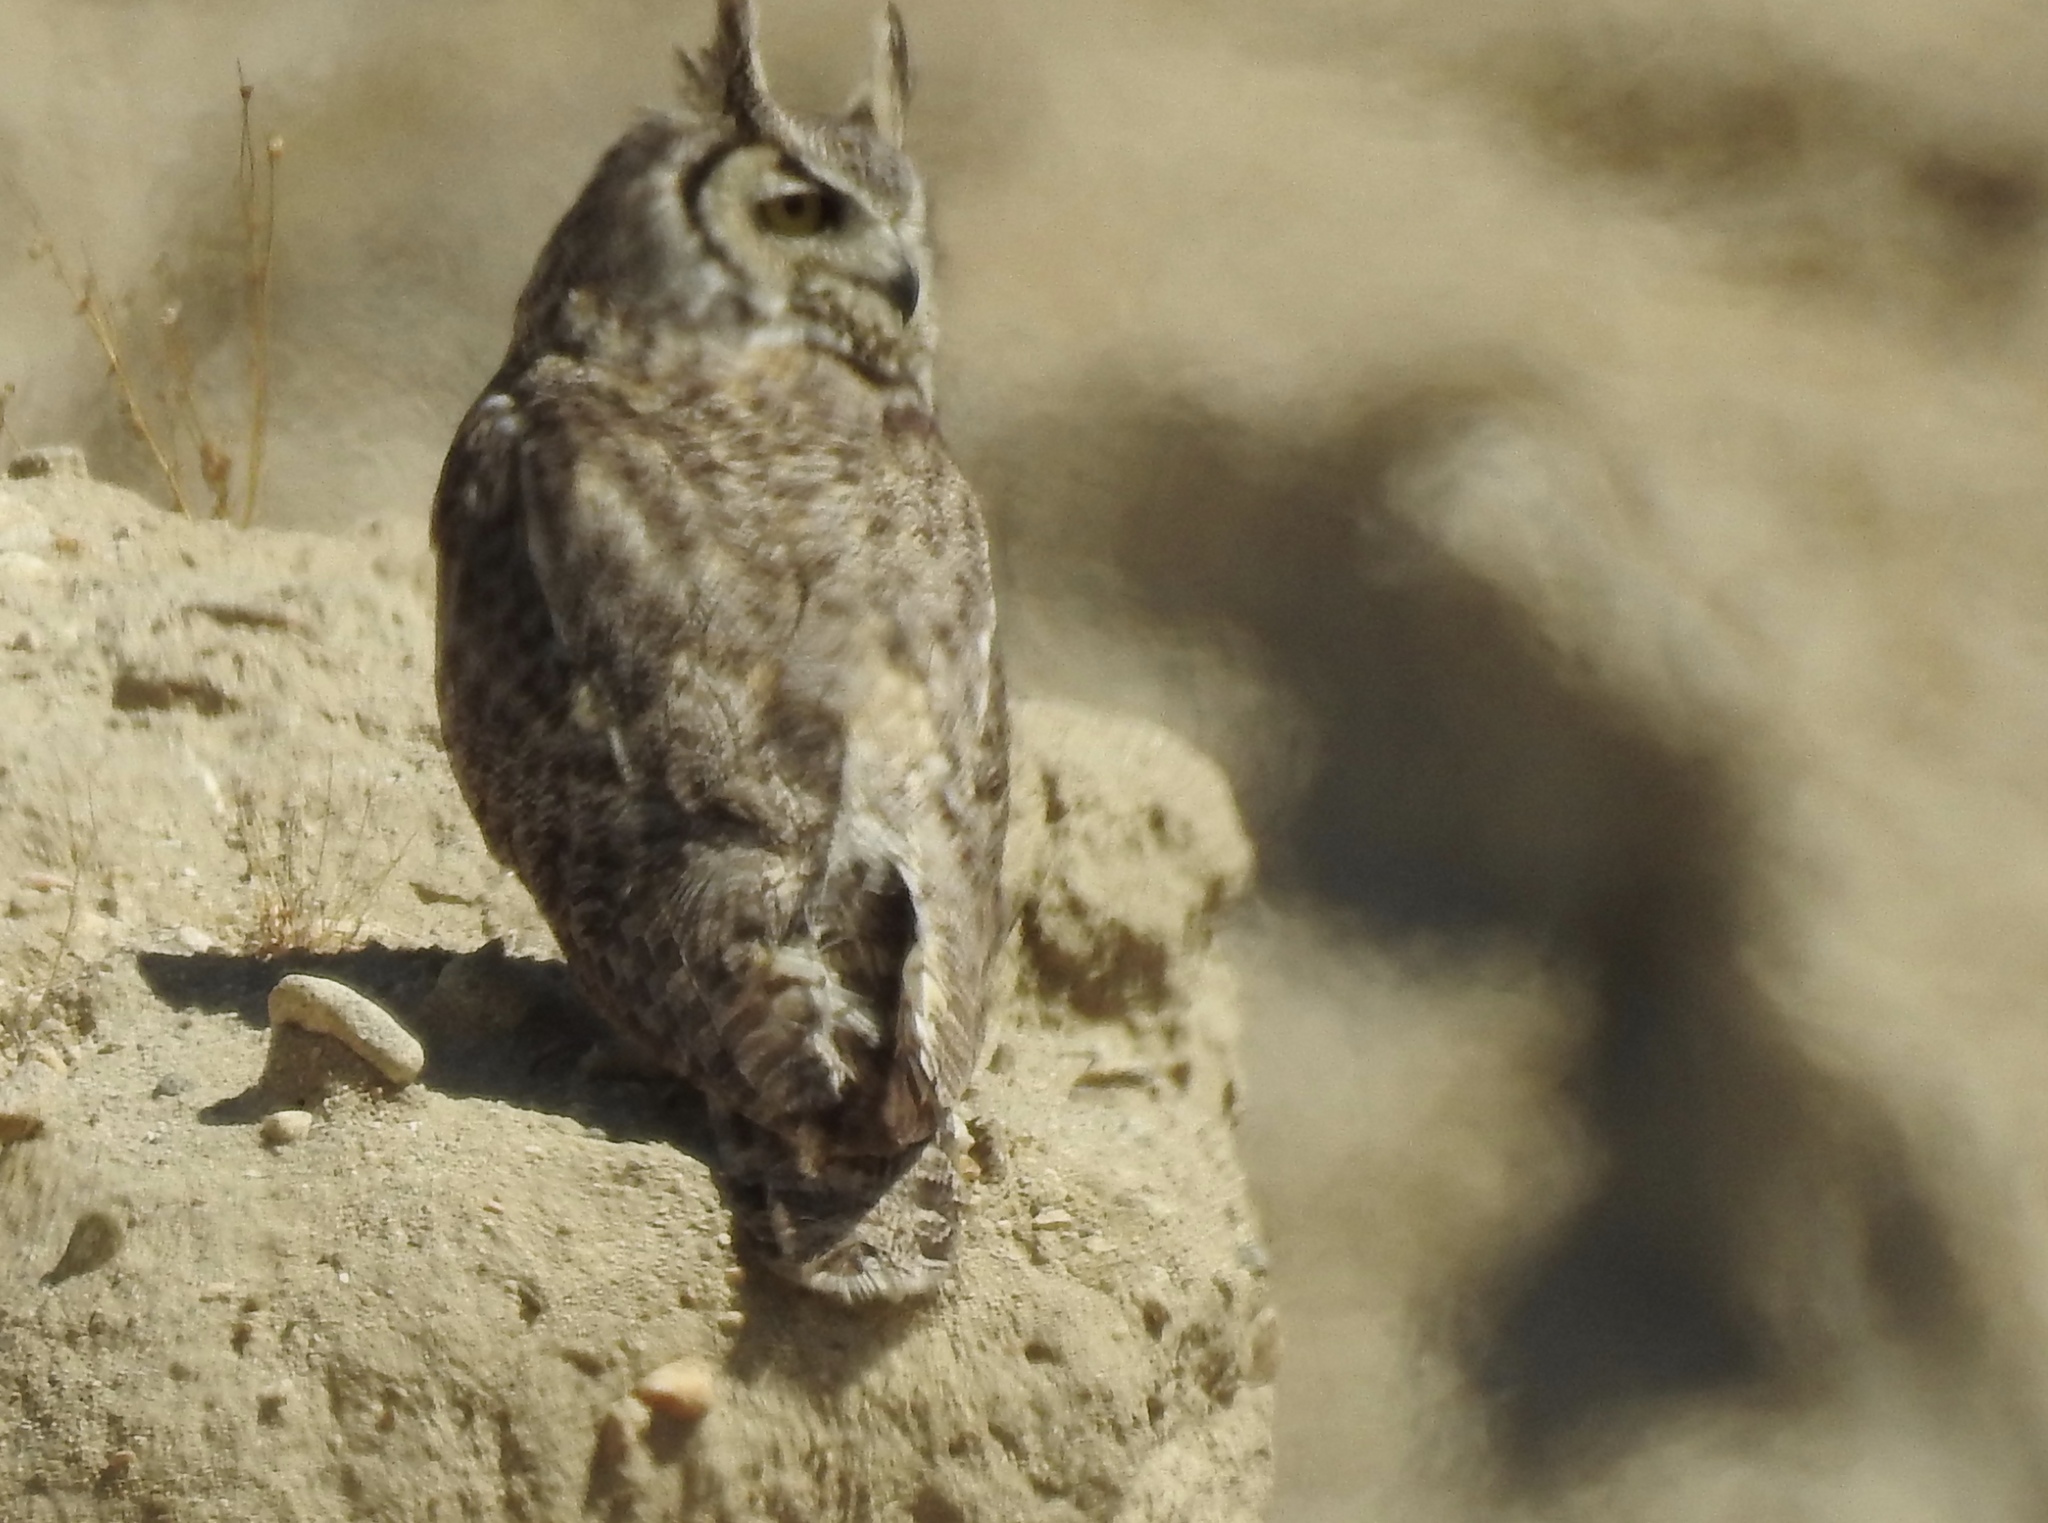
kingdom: Animalia
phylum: Chordata
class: Aves
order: Strigiformes
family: Strigidae
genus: Bubo
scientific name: Bubo virginianus
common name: Great horned owl
